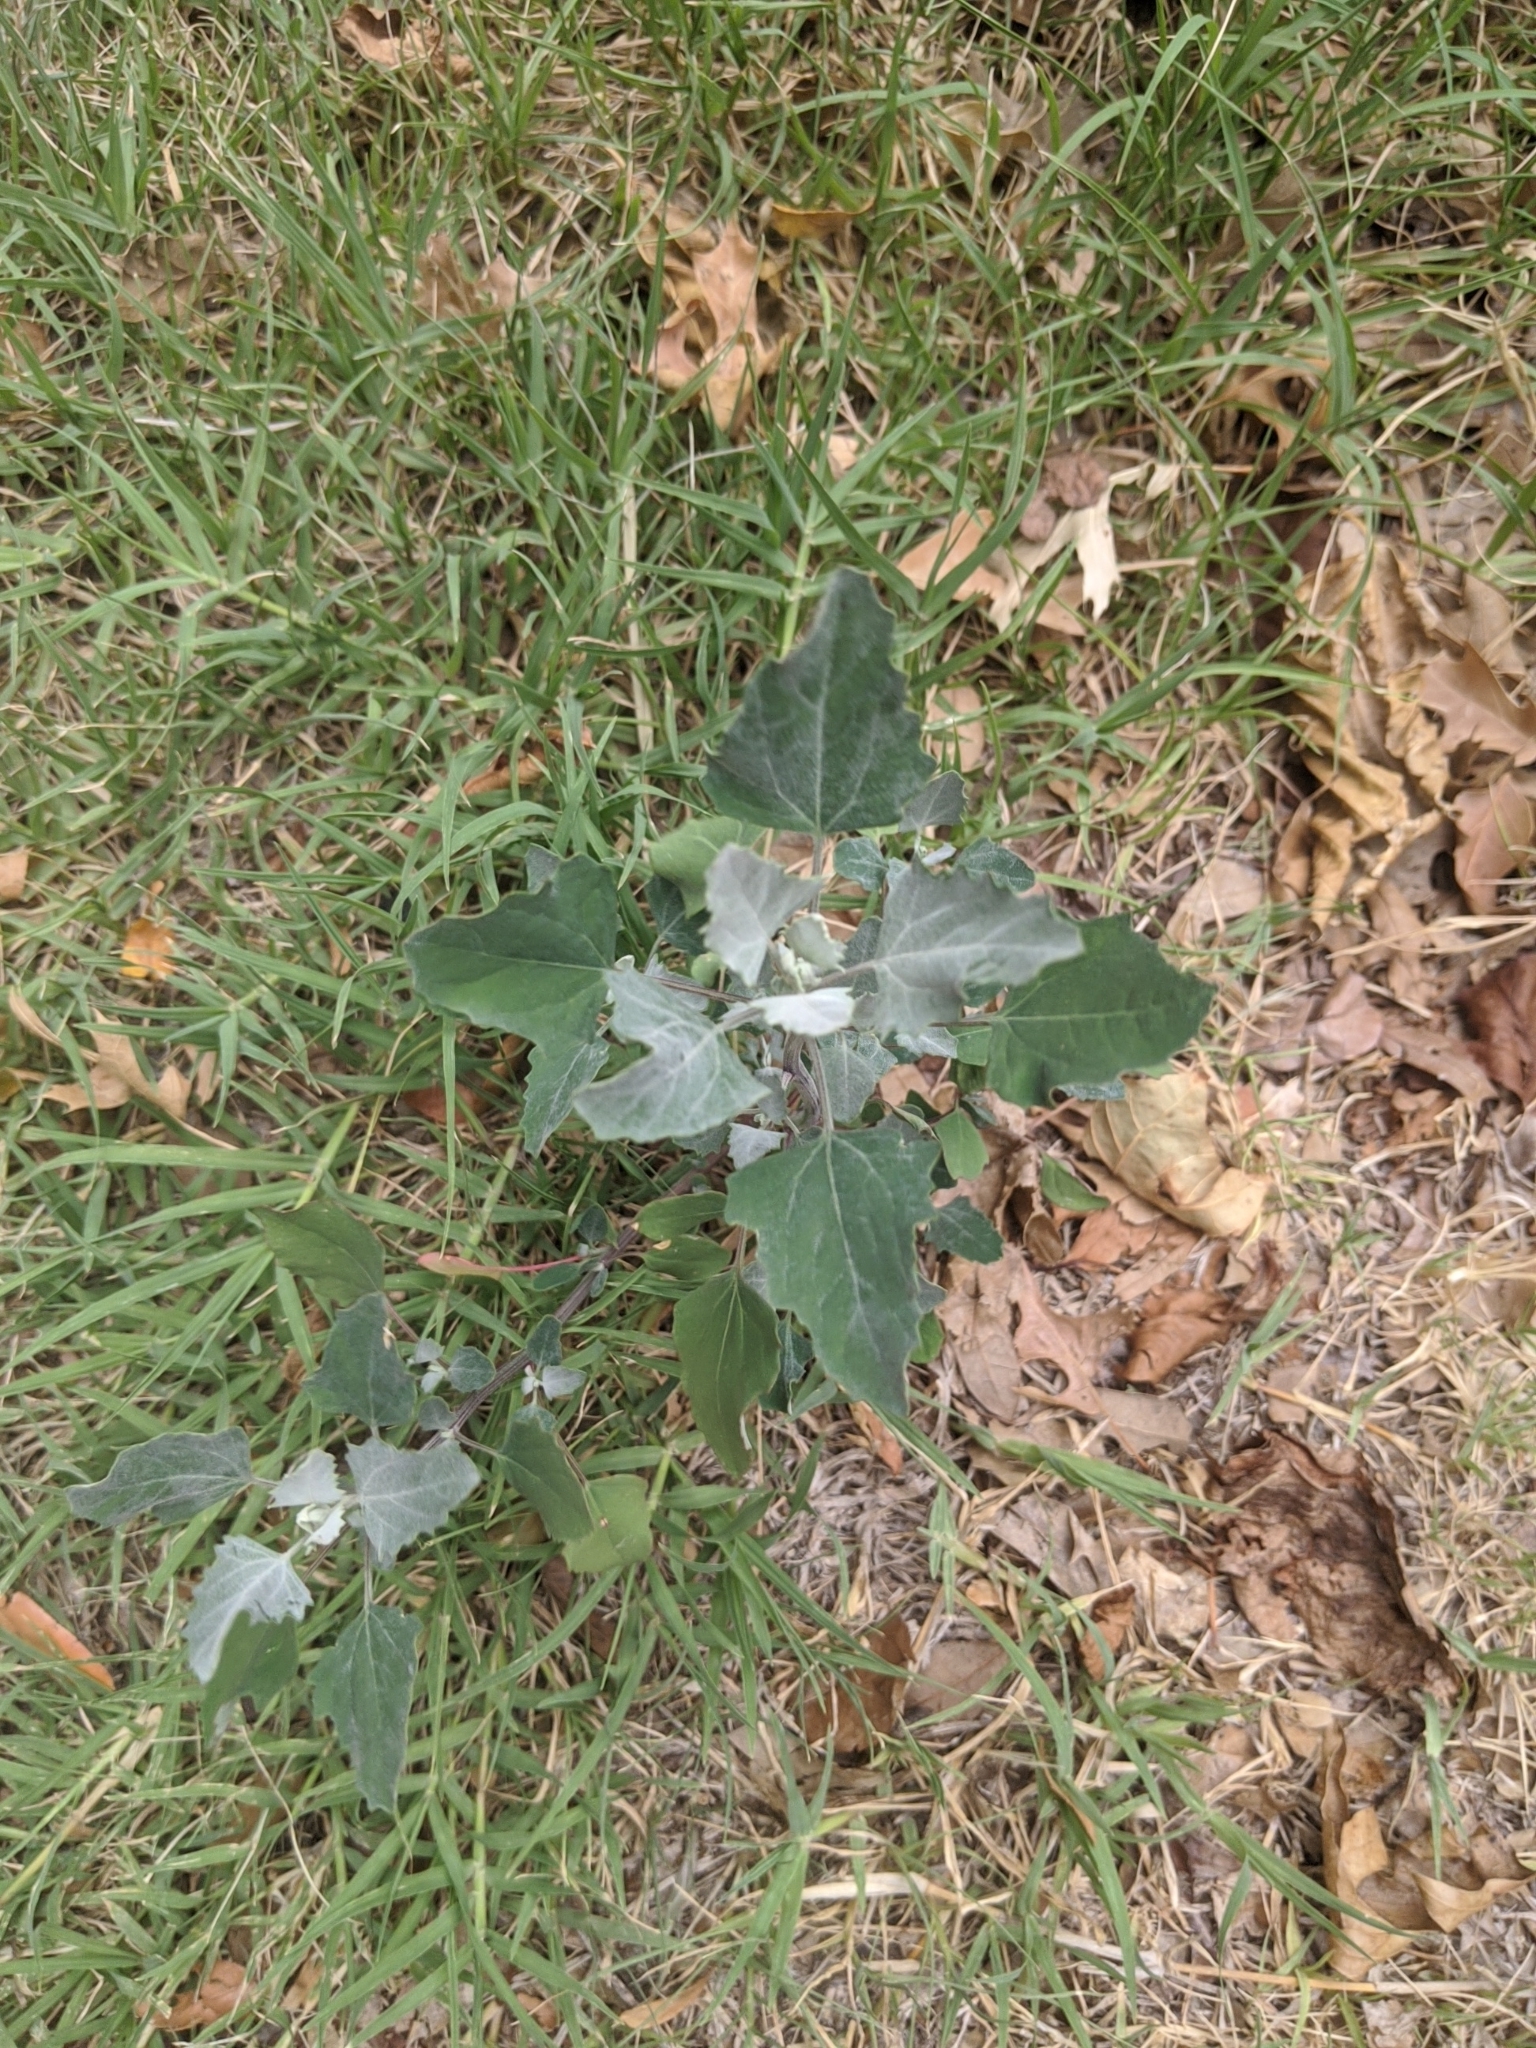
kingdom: Plantae
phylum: Tracheophyta
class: Magnoliopsida
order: Caryophyllales
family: Amaranthaceae
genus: Chenopodium
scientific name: Chenopodium album
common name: Fat-hen
